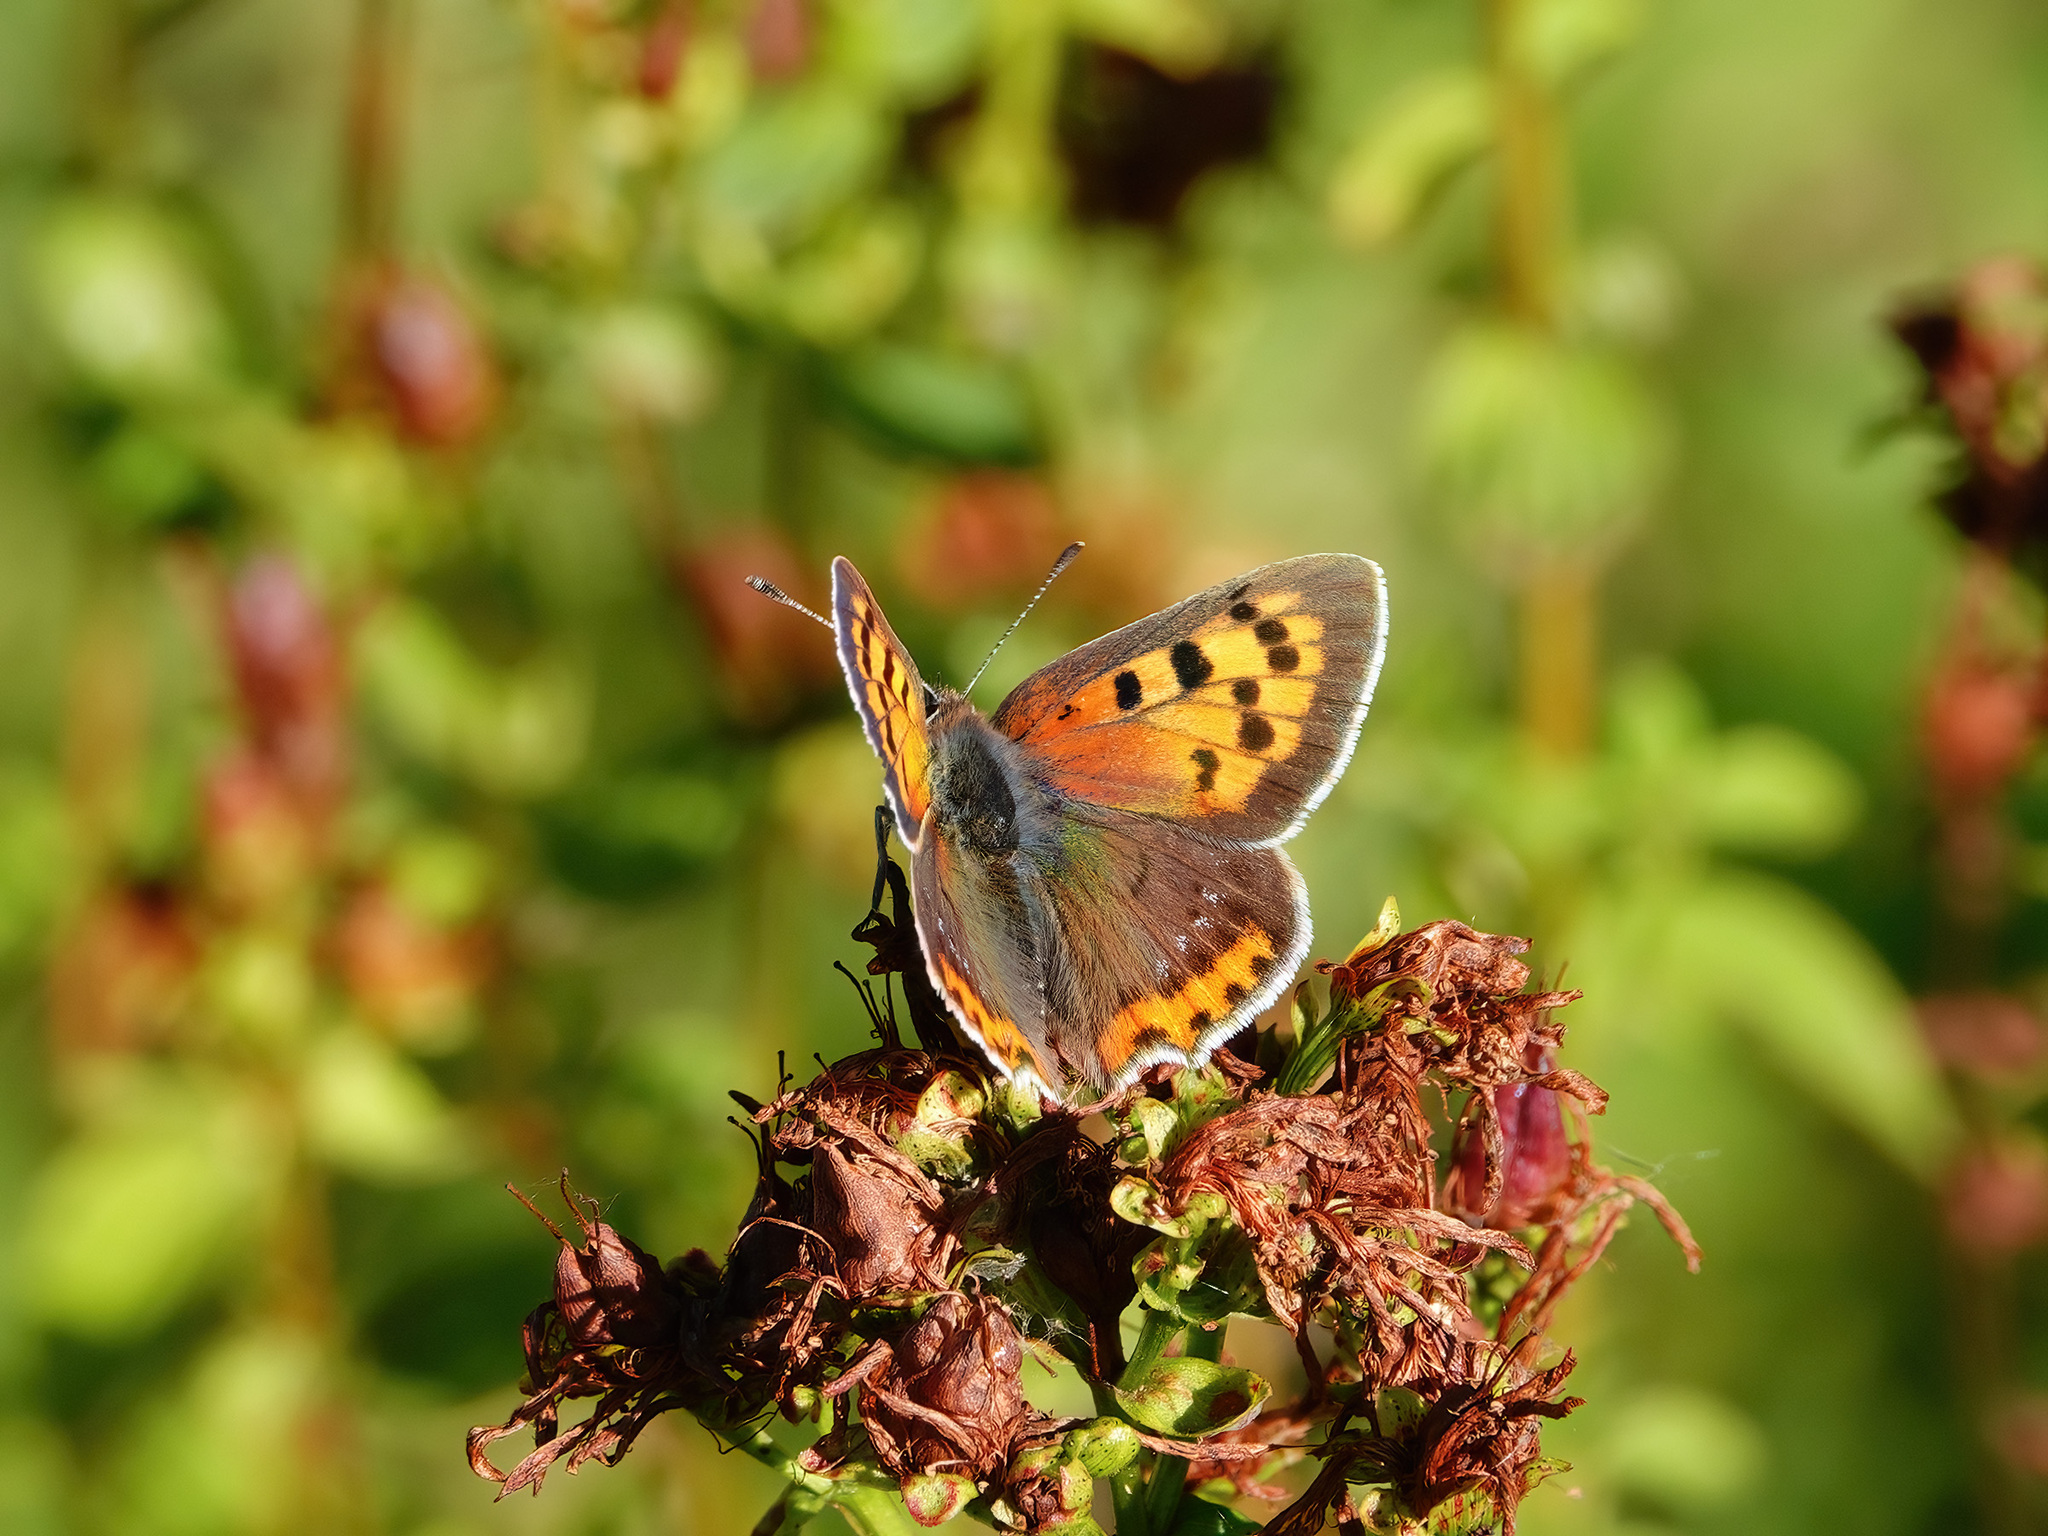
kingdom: Animalia
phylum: Arthropoda
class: Insecta
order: Lepidoptera
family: Lycaenidae
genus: Lycaena
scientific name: Lycaena phlaeas
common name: Small copper
